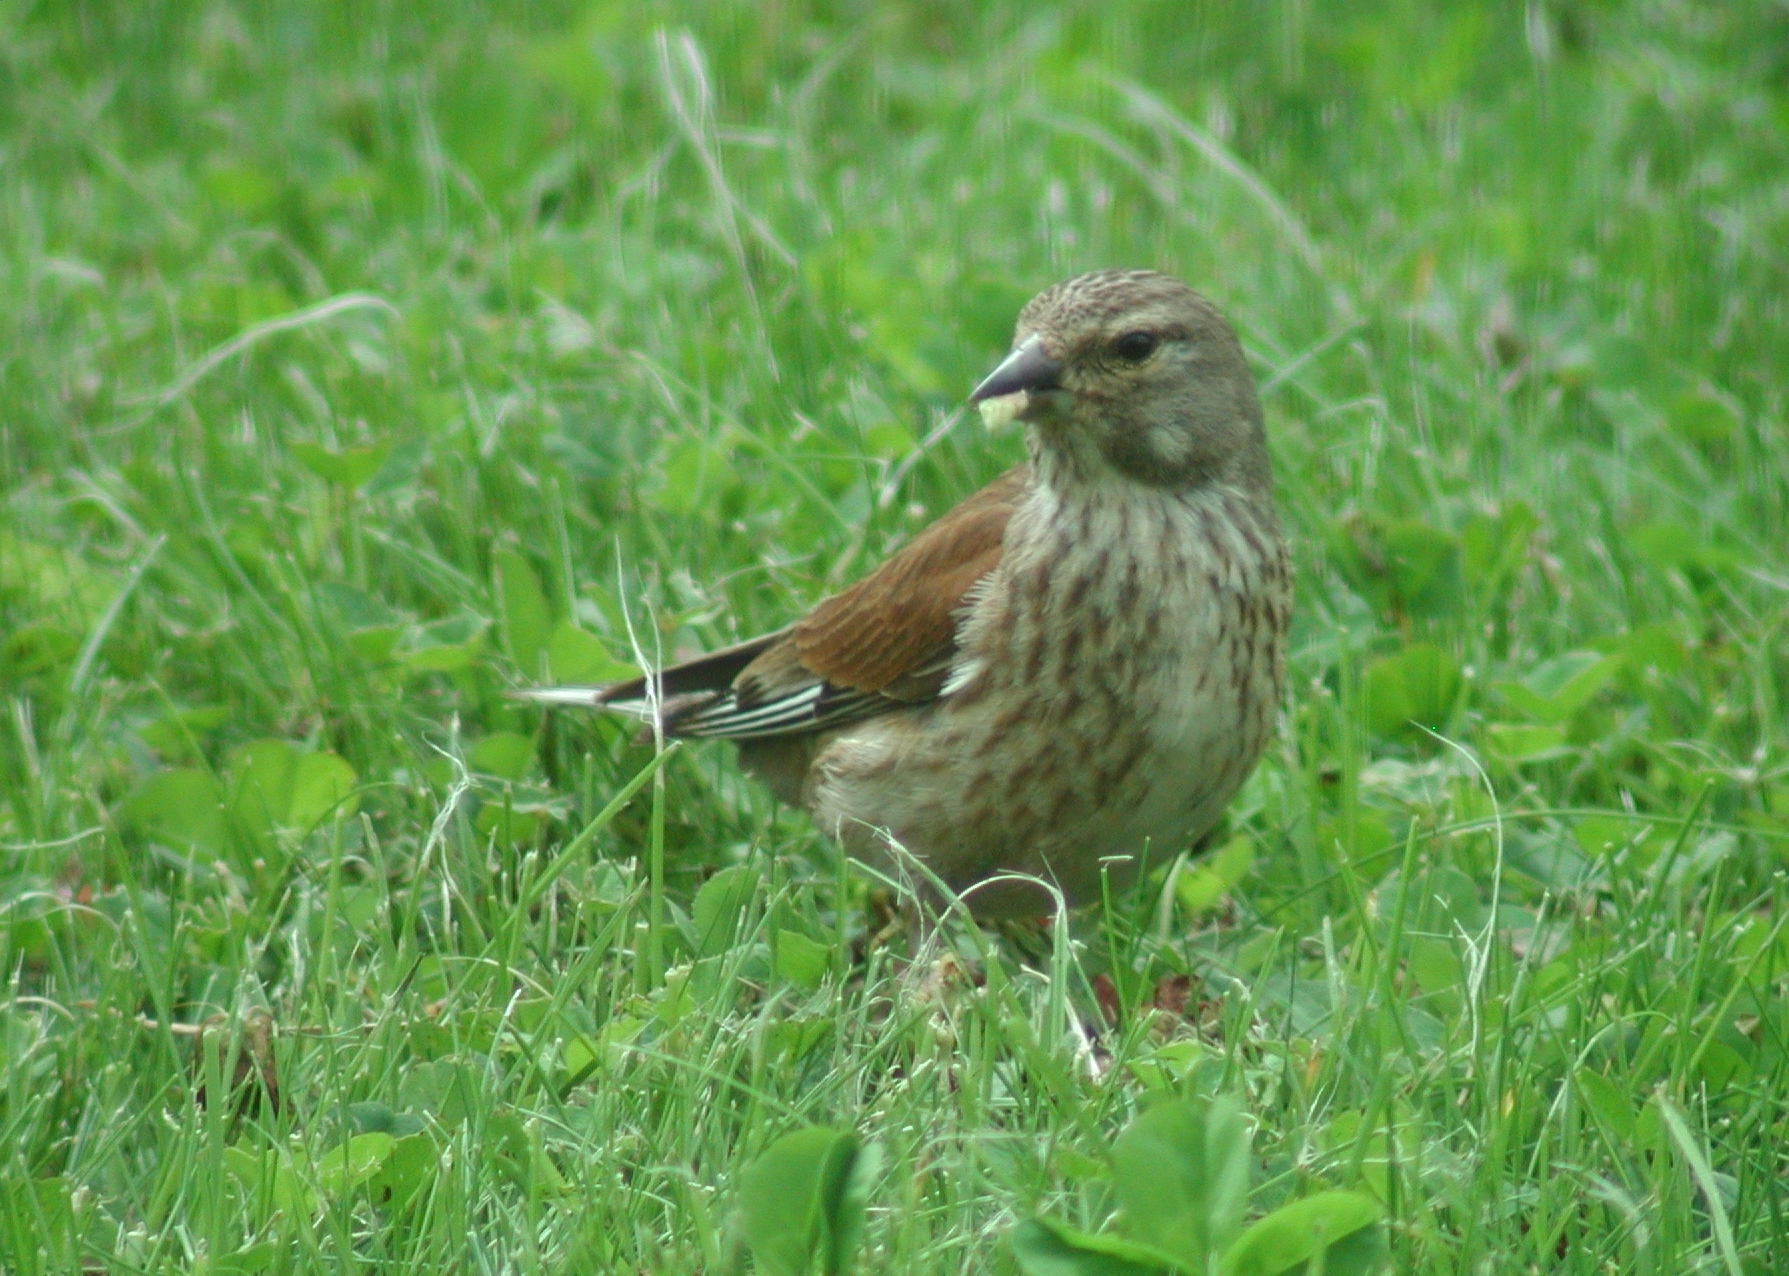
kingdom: Animalia
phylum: Chordata
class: Aves
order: Passeriformes
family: Fringillidae
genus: Linaria
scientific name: Linaria cannabina
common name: Common linnet
